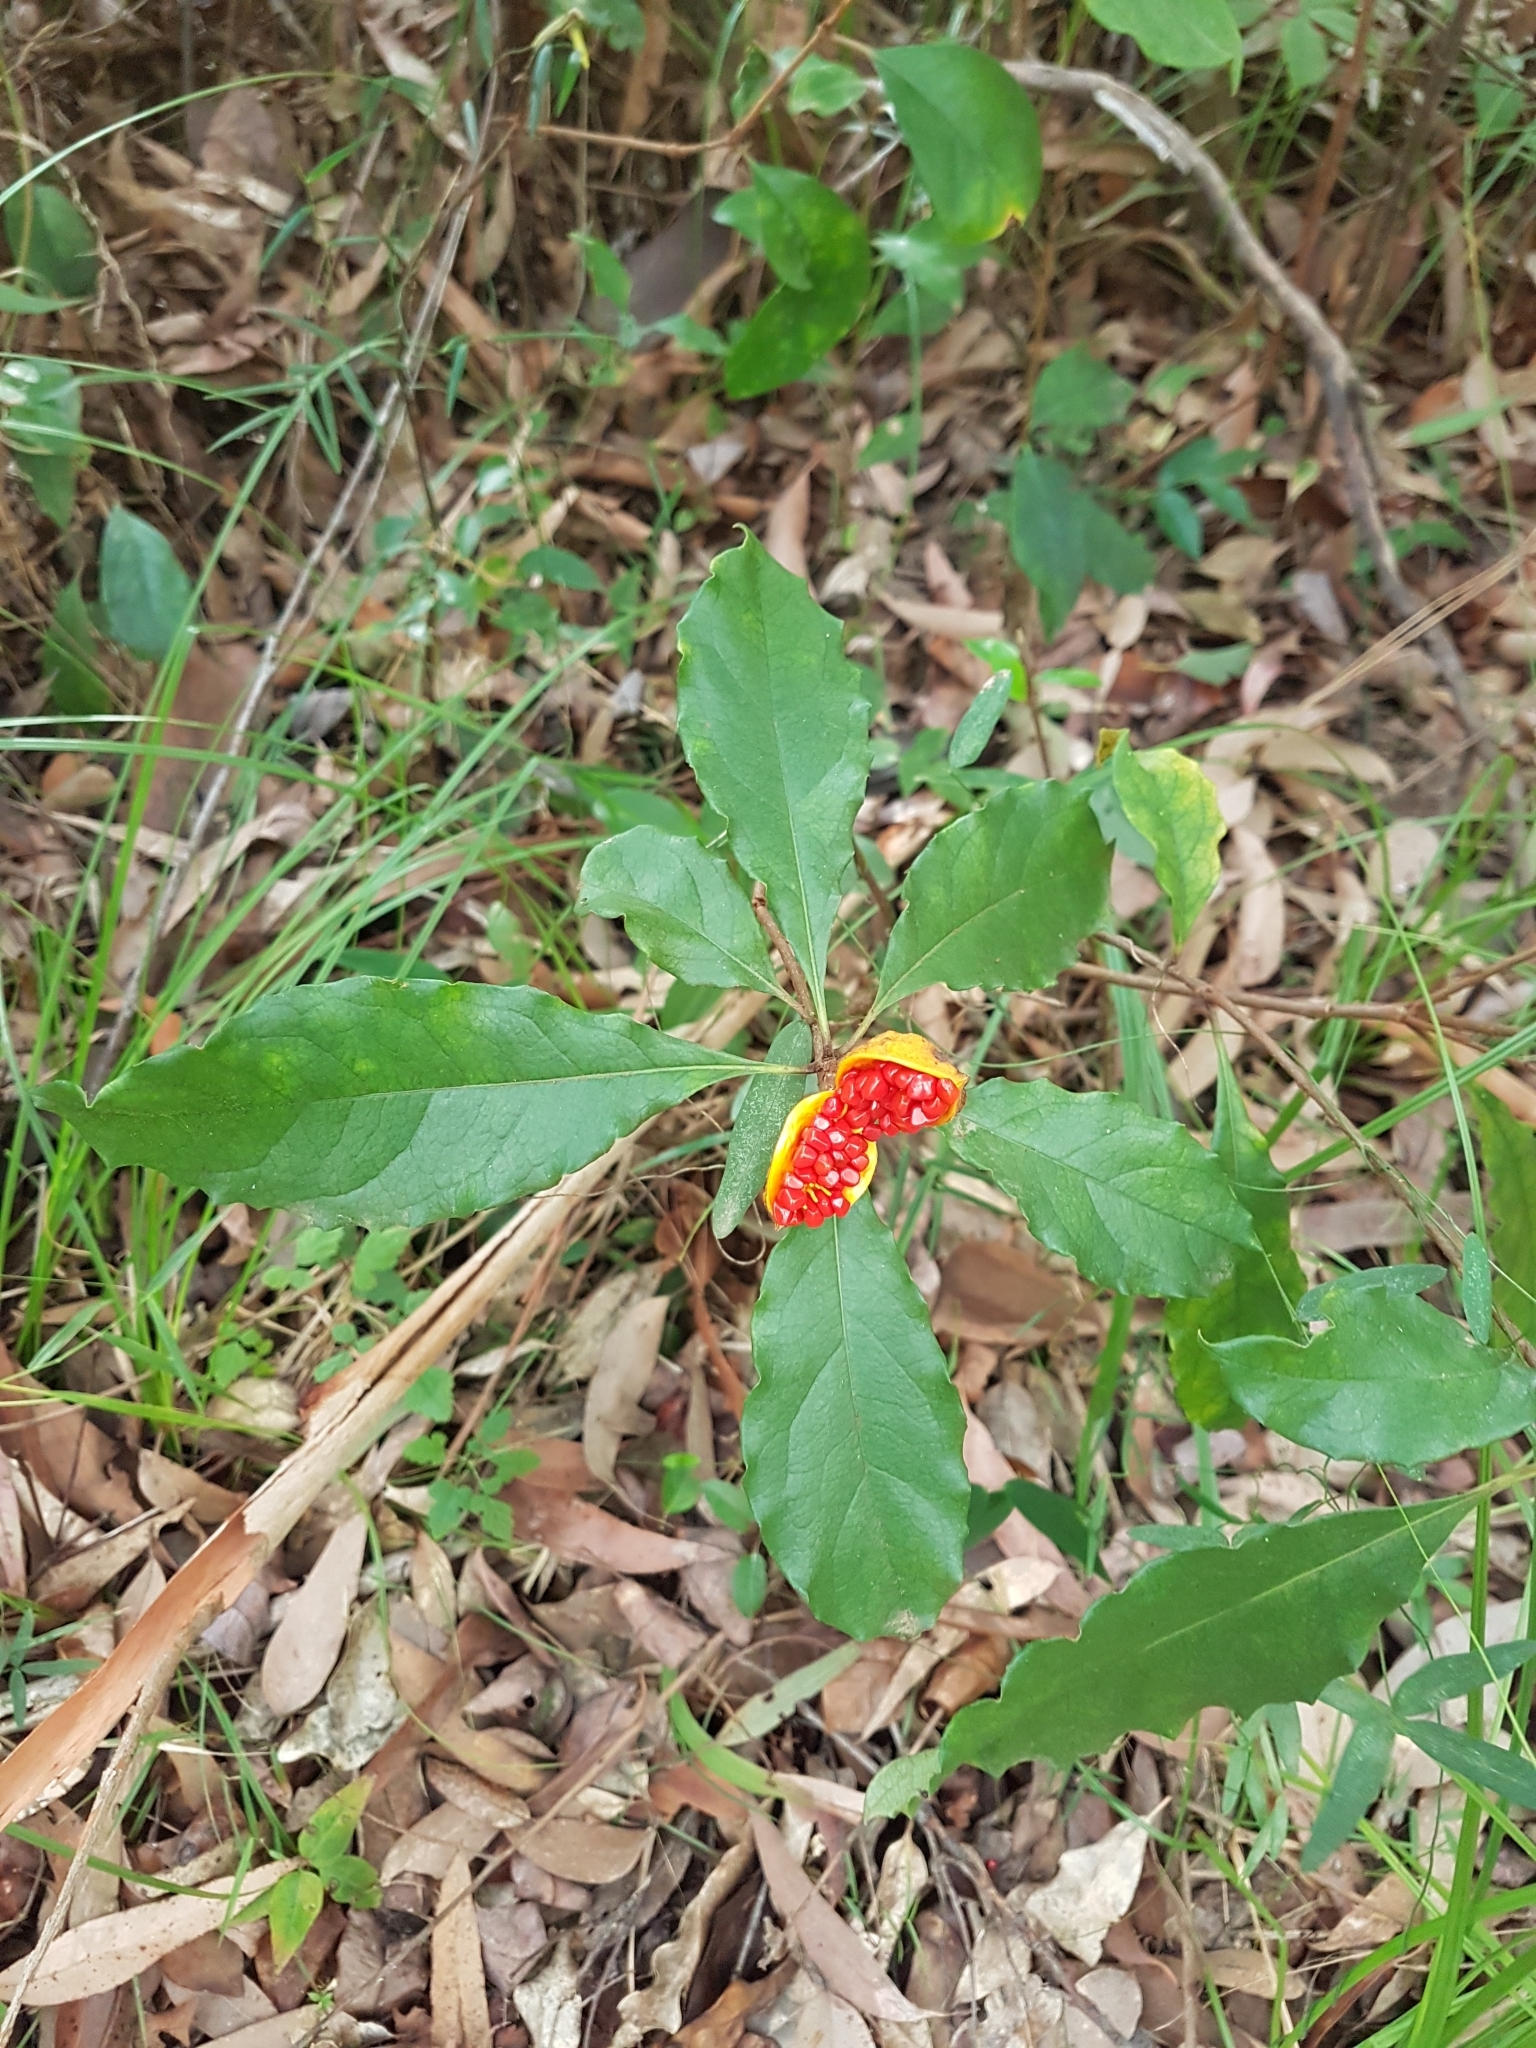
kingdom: Plantae
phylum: Tracheophyta
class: Magnoliopsida
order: Apiales
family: Pittosporaceae
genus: Pittosporum
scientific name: Pittosporum revolutum
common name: Brisbane-laurel
